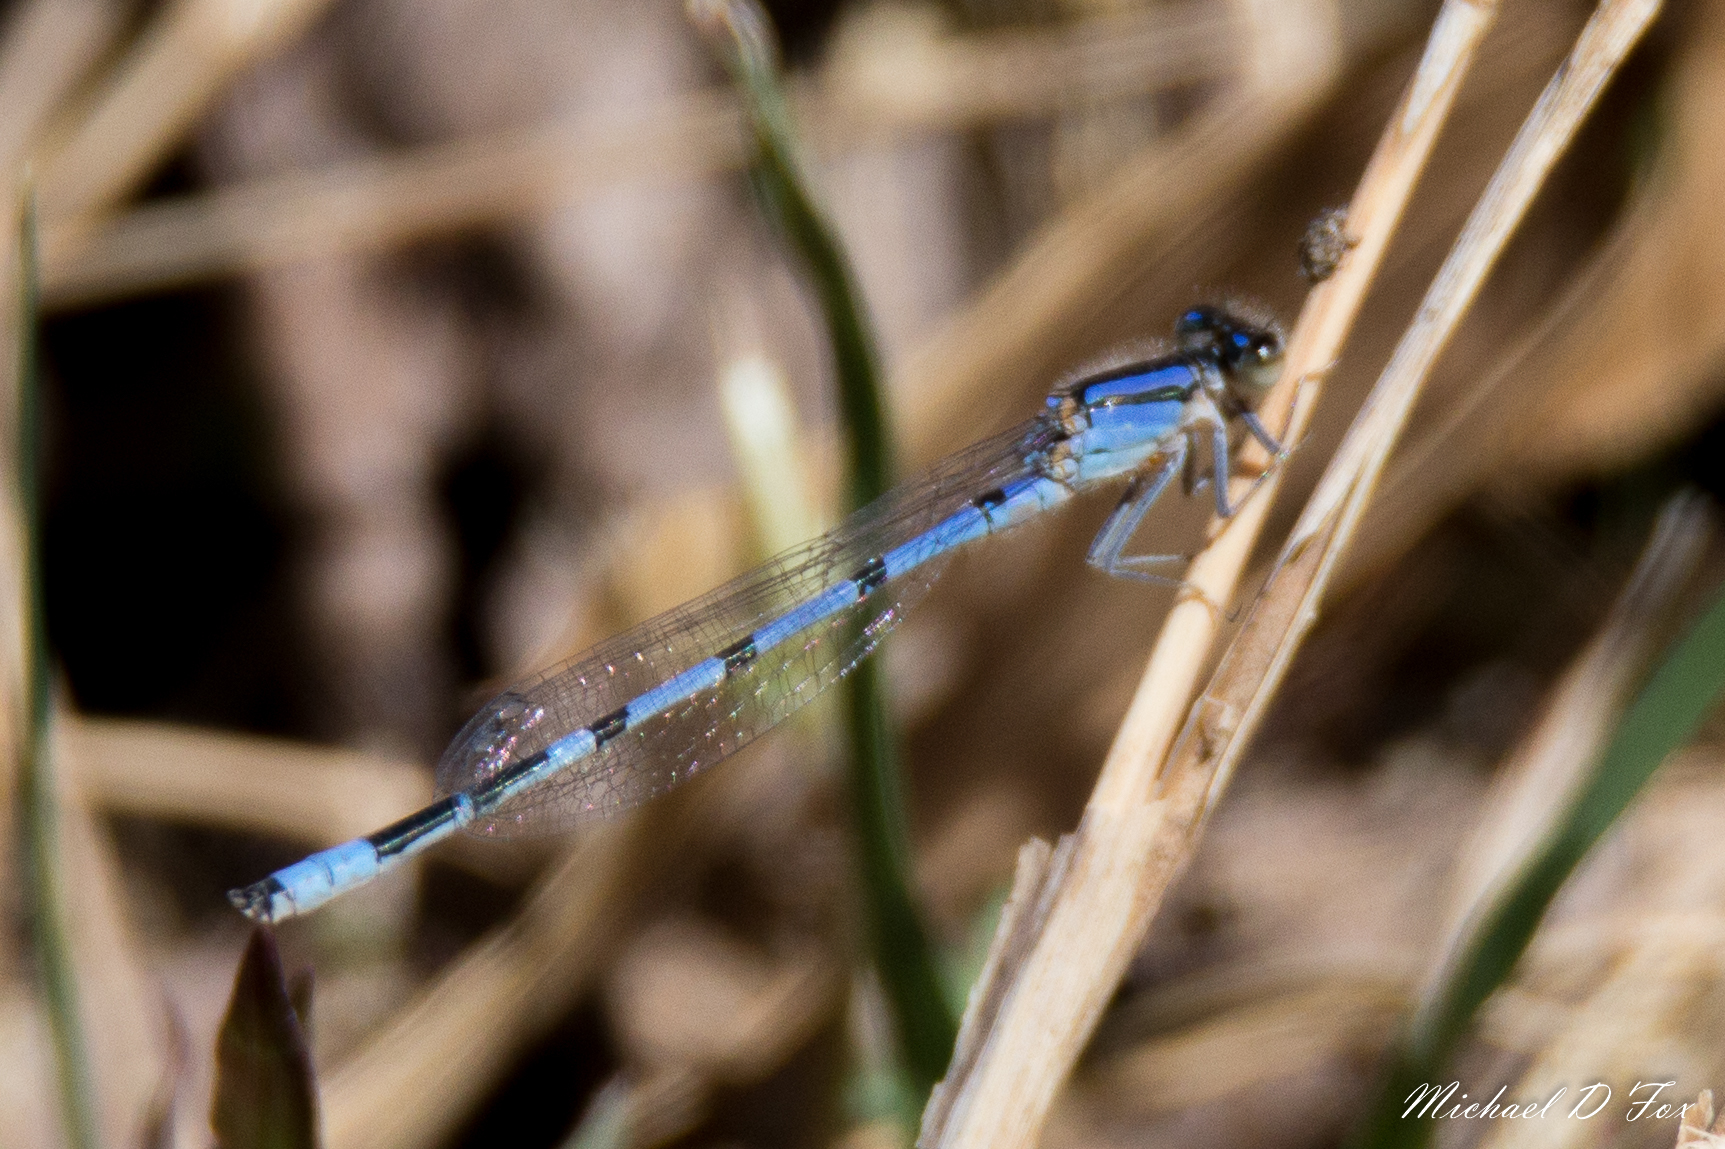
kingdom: Animalia
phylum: Arthropoda
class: Insecta
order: Odonata
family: Coenagrionidae
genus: Enallagma
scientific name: Enallagma civile
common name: Damselfly
